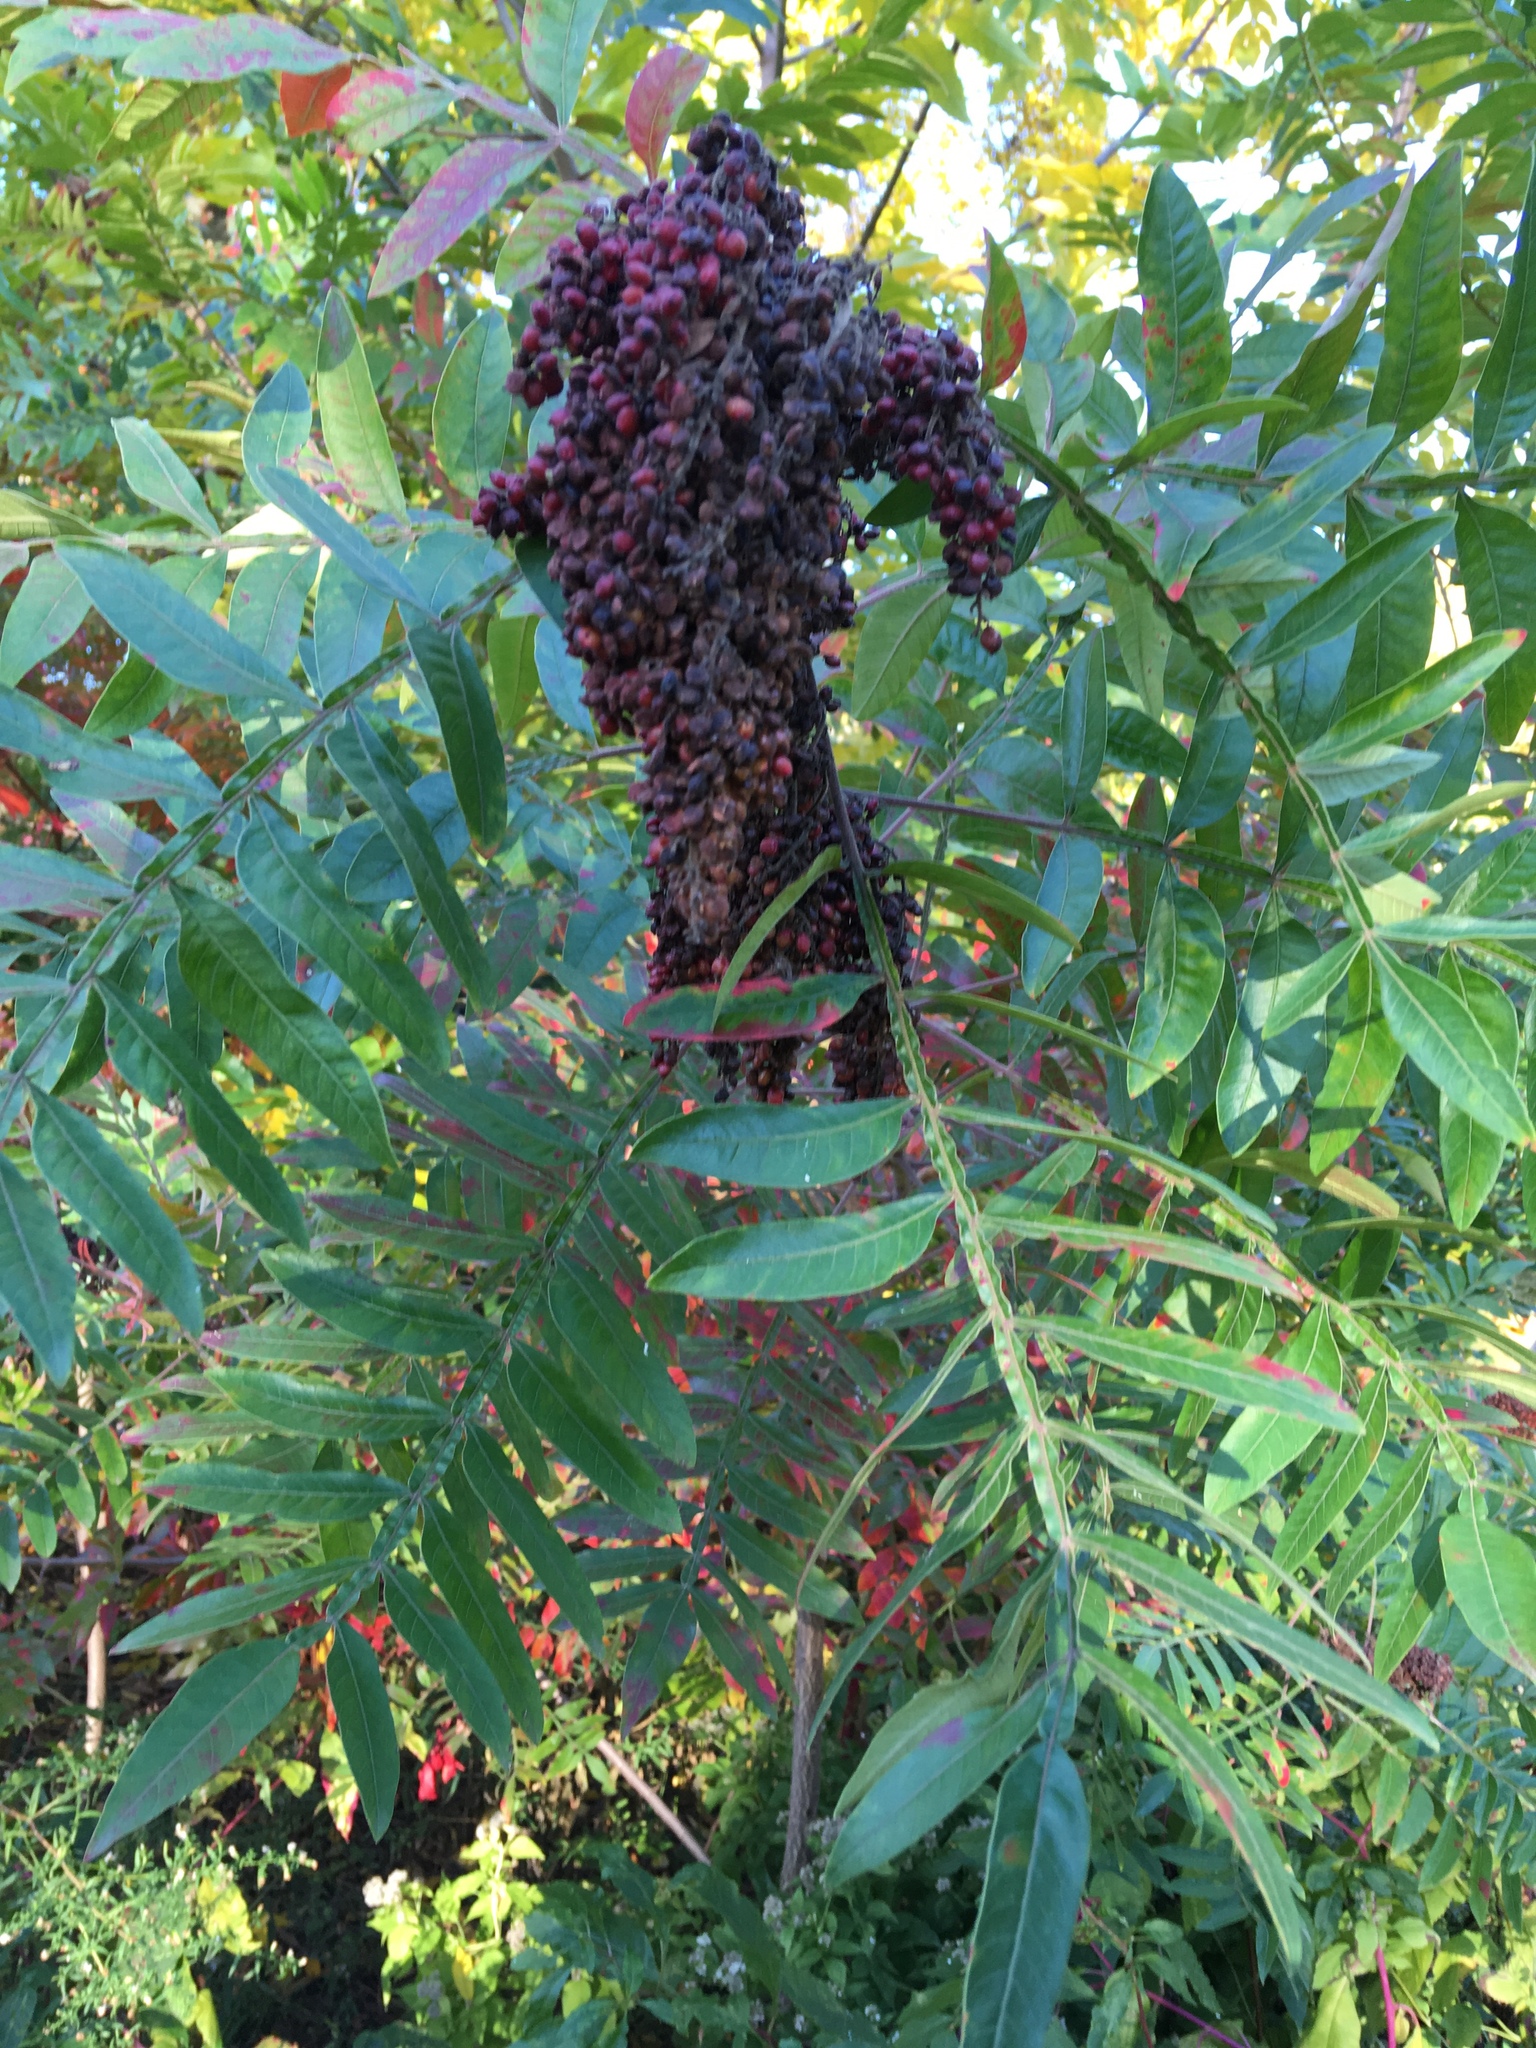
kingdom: Plantae
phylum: Tracheophyta
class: Magnoliopsida
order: Sapindales
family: Anacardiaceae
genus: Rhus
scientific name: Rhus copallina
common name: Shining sumac
